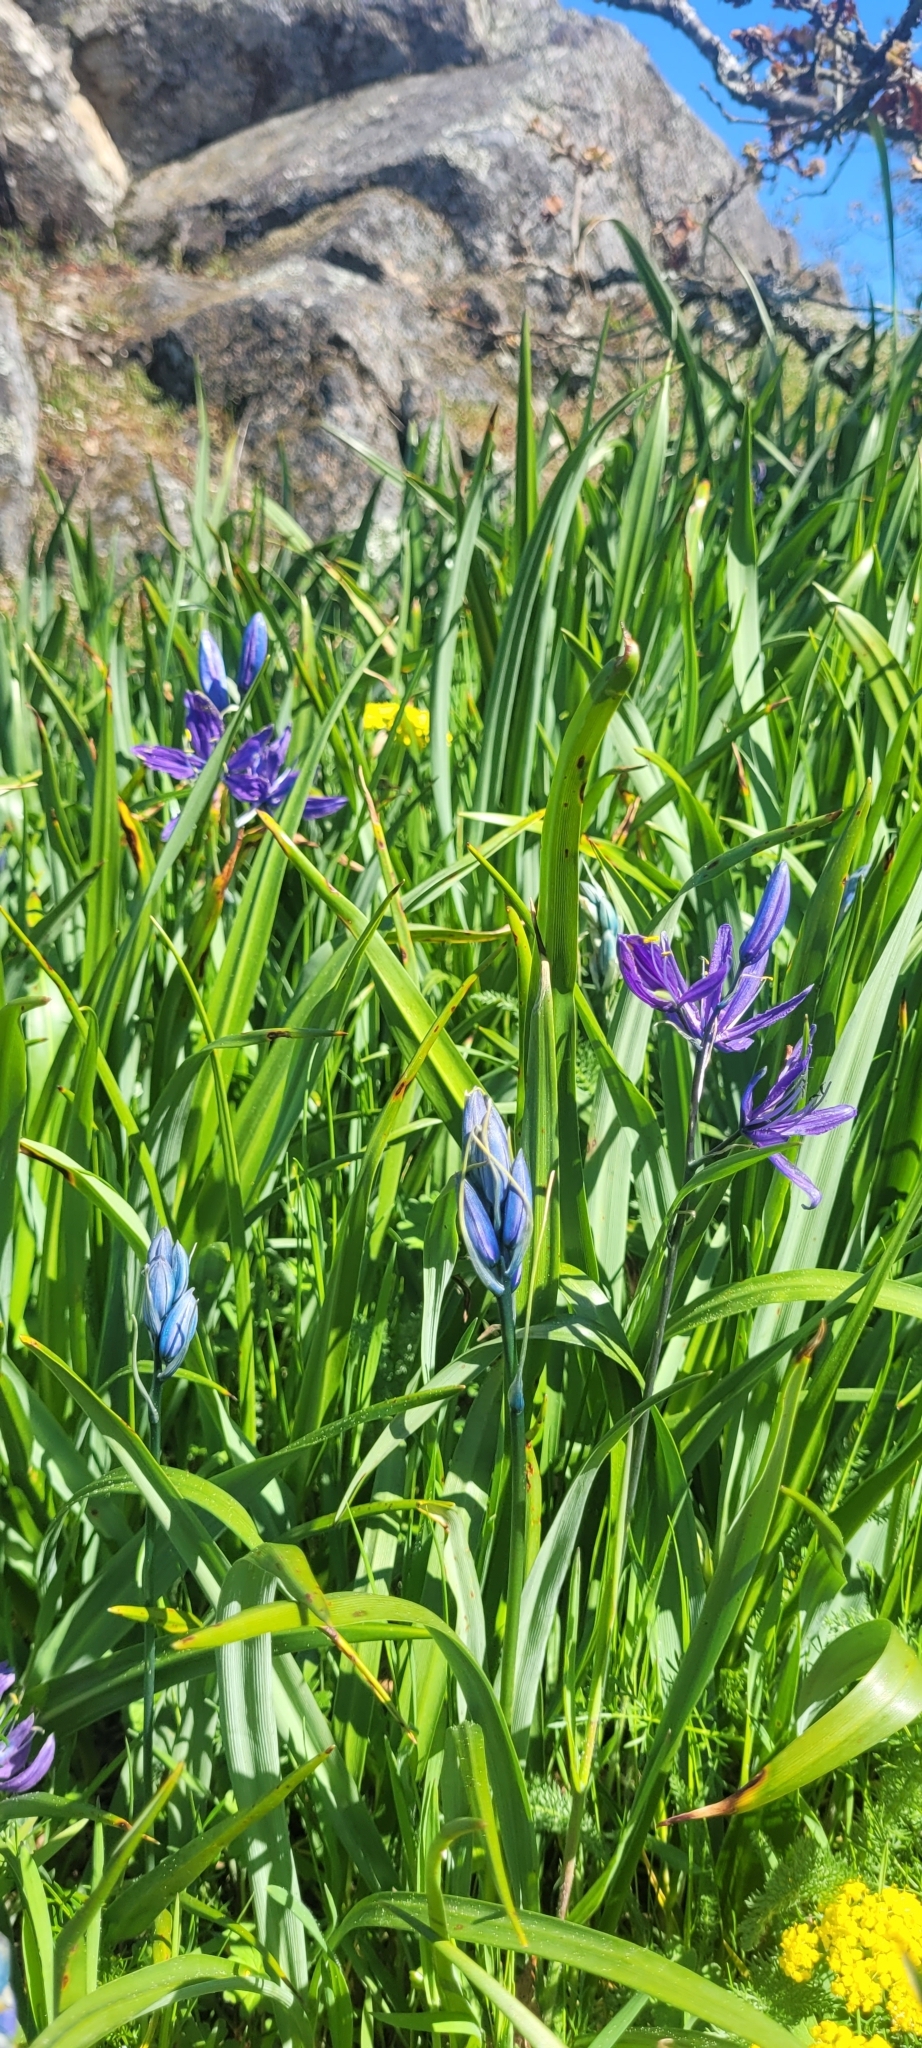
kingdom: Plantae
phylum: Tracheophyta
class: Liliopsida
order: Asparagales
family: Asparagaceae
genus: Camassia
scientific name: Camassia quamash
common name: Common camas
